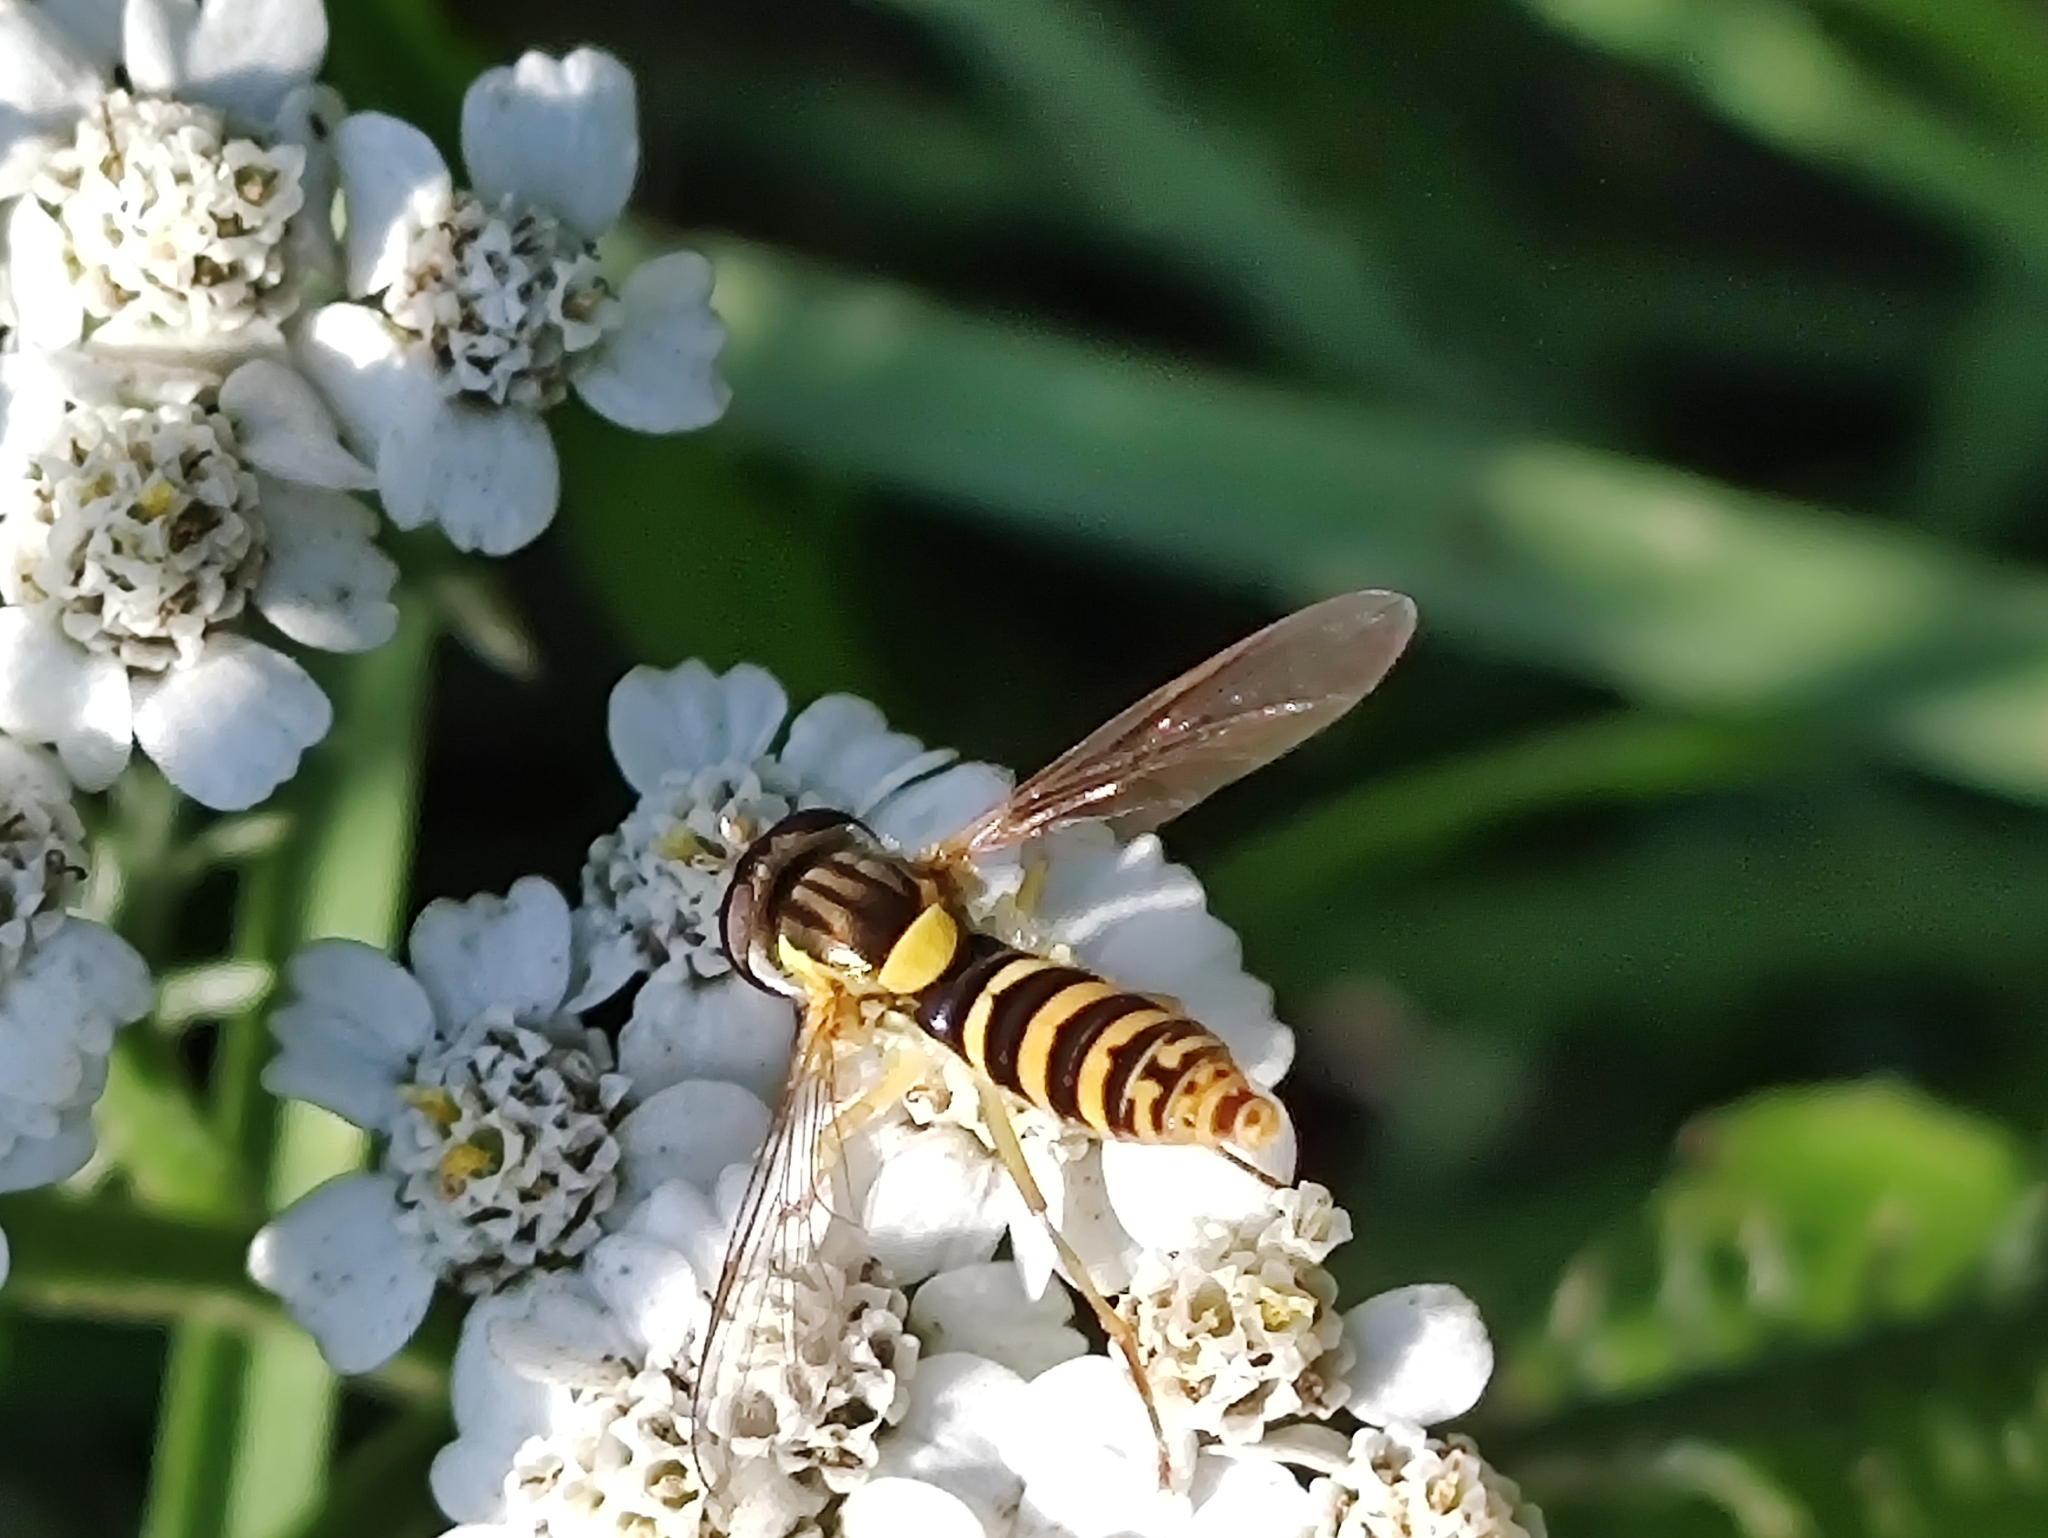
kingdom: Animalia
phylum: Arthropoda
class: Insecta
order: Diptera
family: Syrphidae
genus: Sphaerophoria
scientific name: Sphaerophoria scripta
